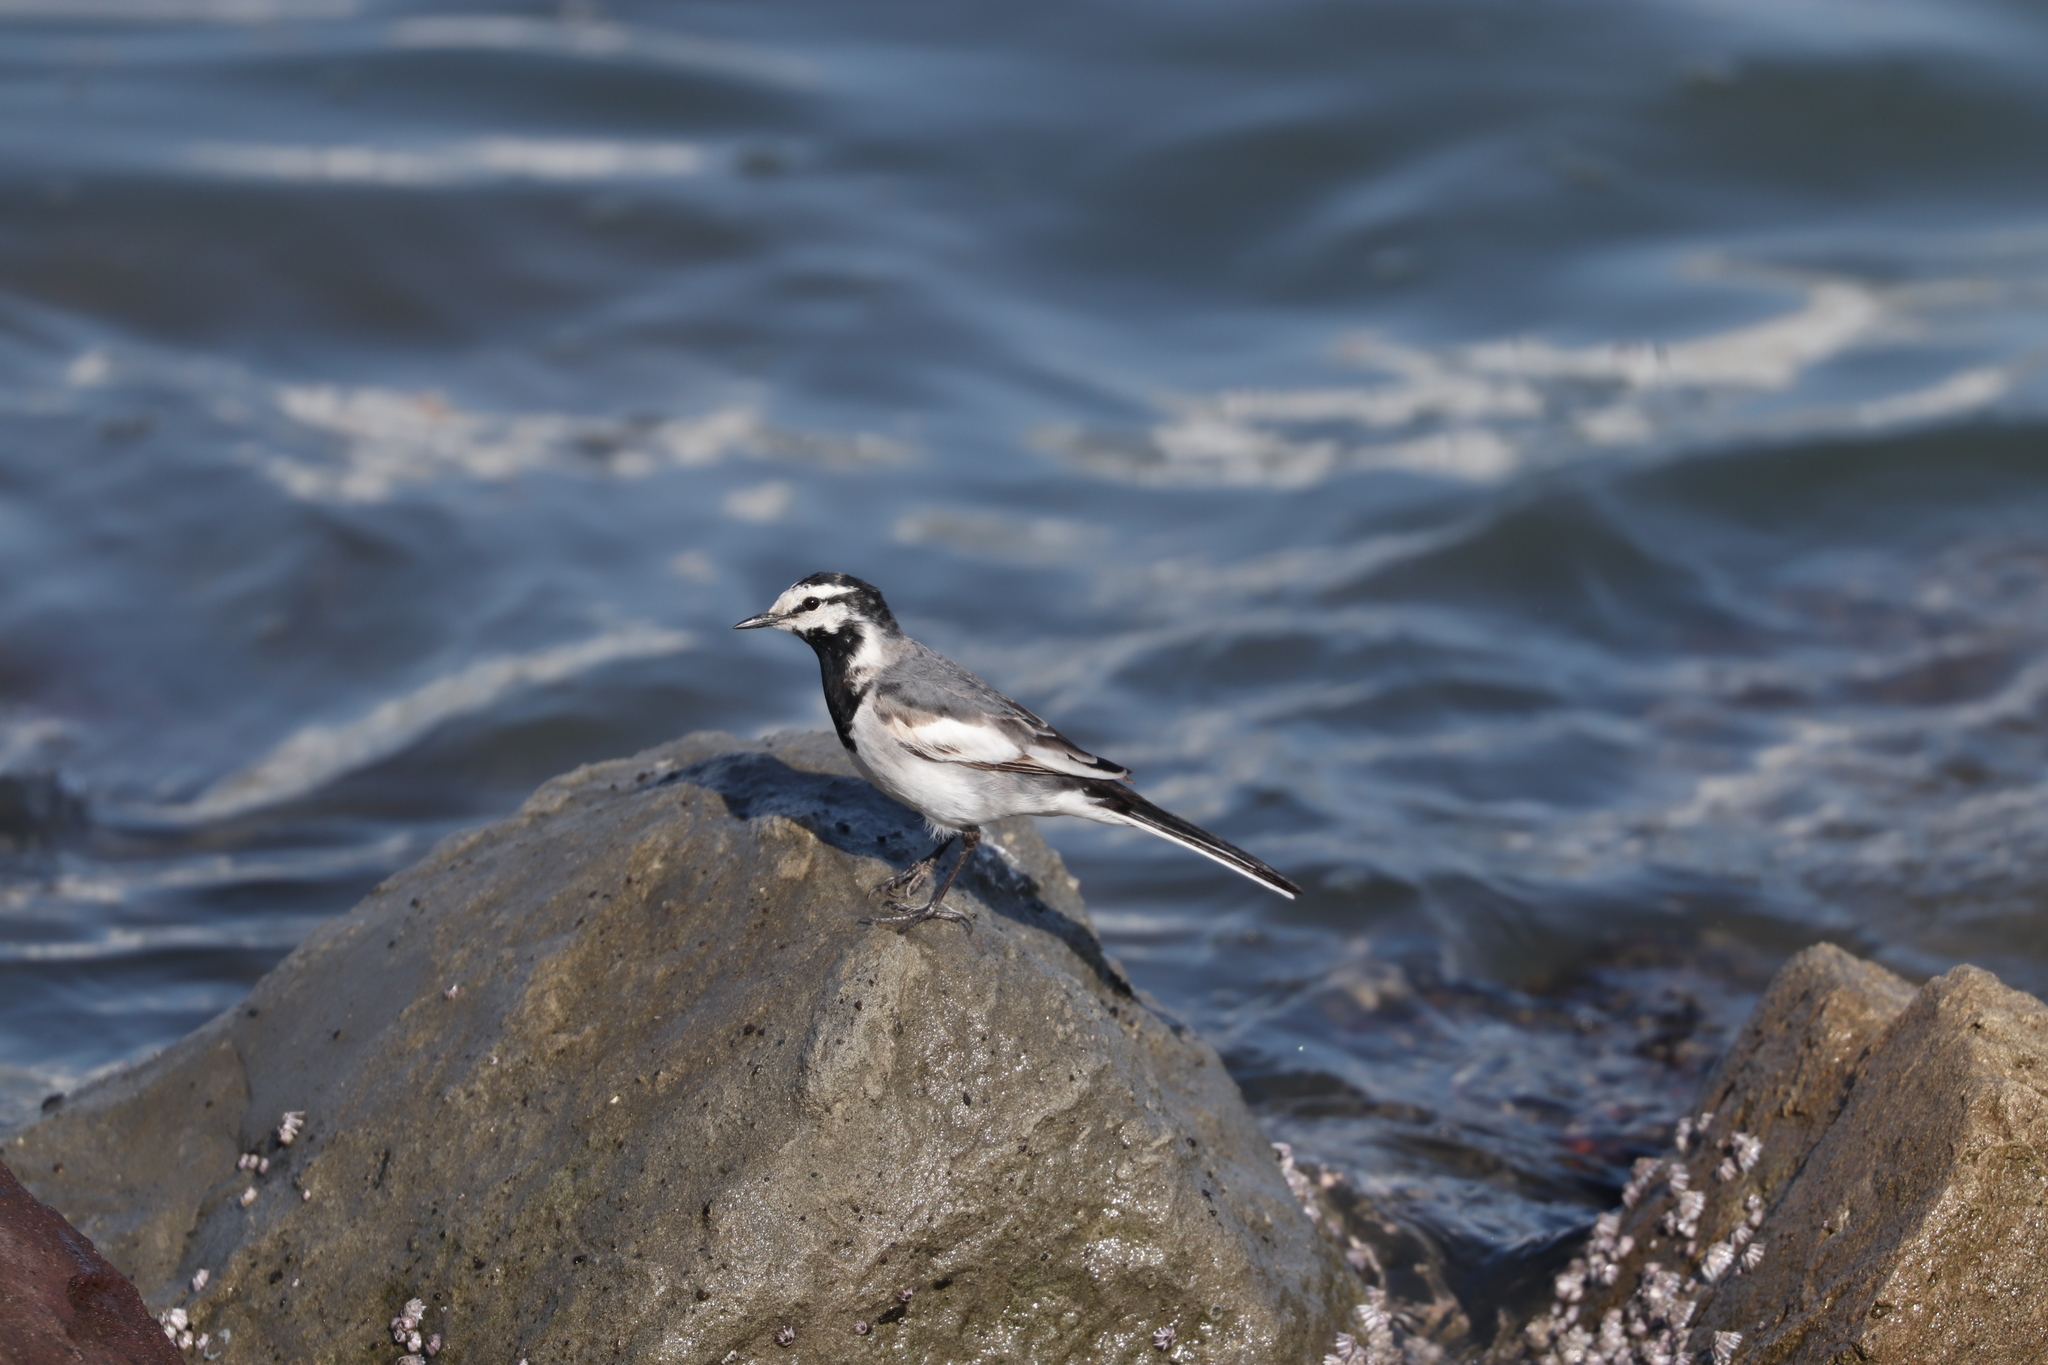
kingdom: Animalia
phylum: Chordata
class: Aves
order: Passeriformes
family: Motacillidae
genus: Motacilla
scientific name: Motacilla alba
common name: White wagtail
